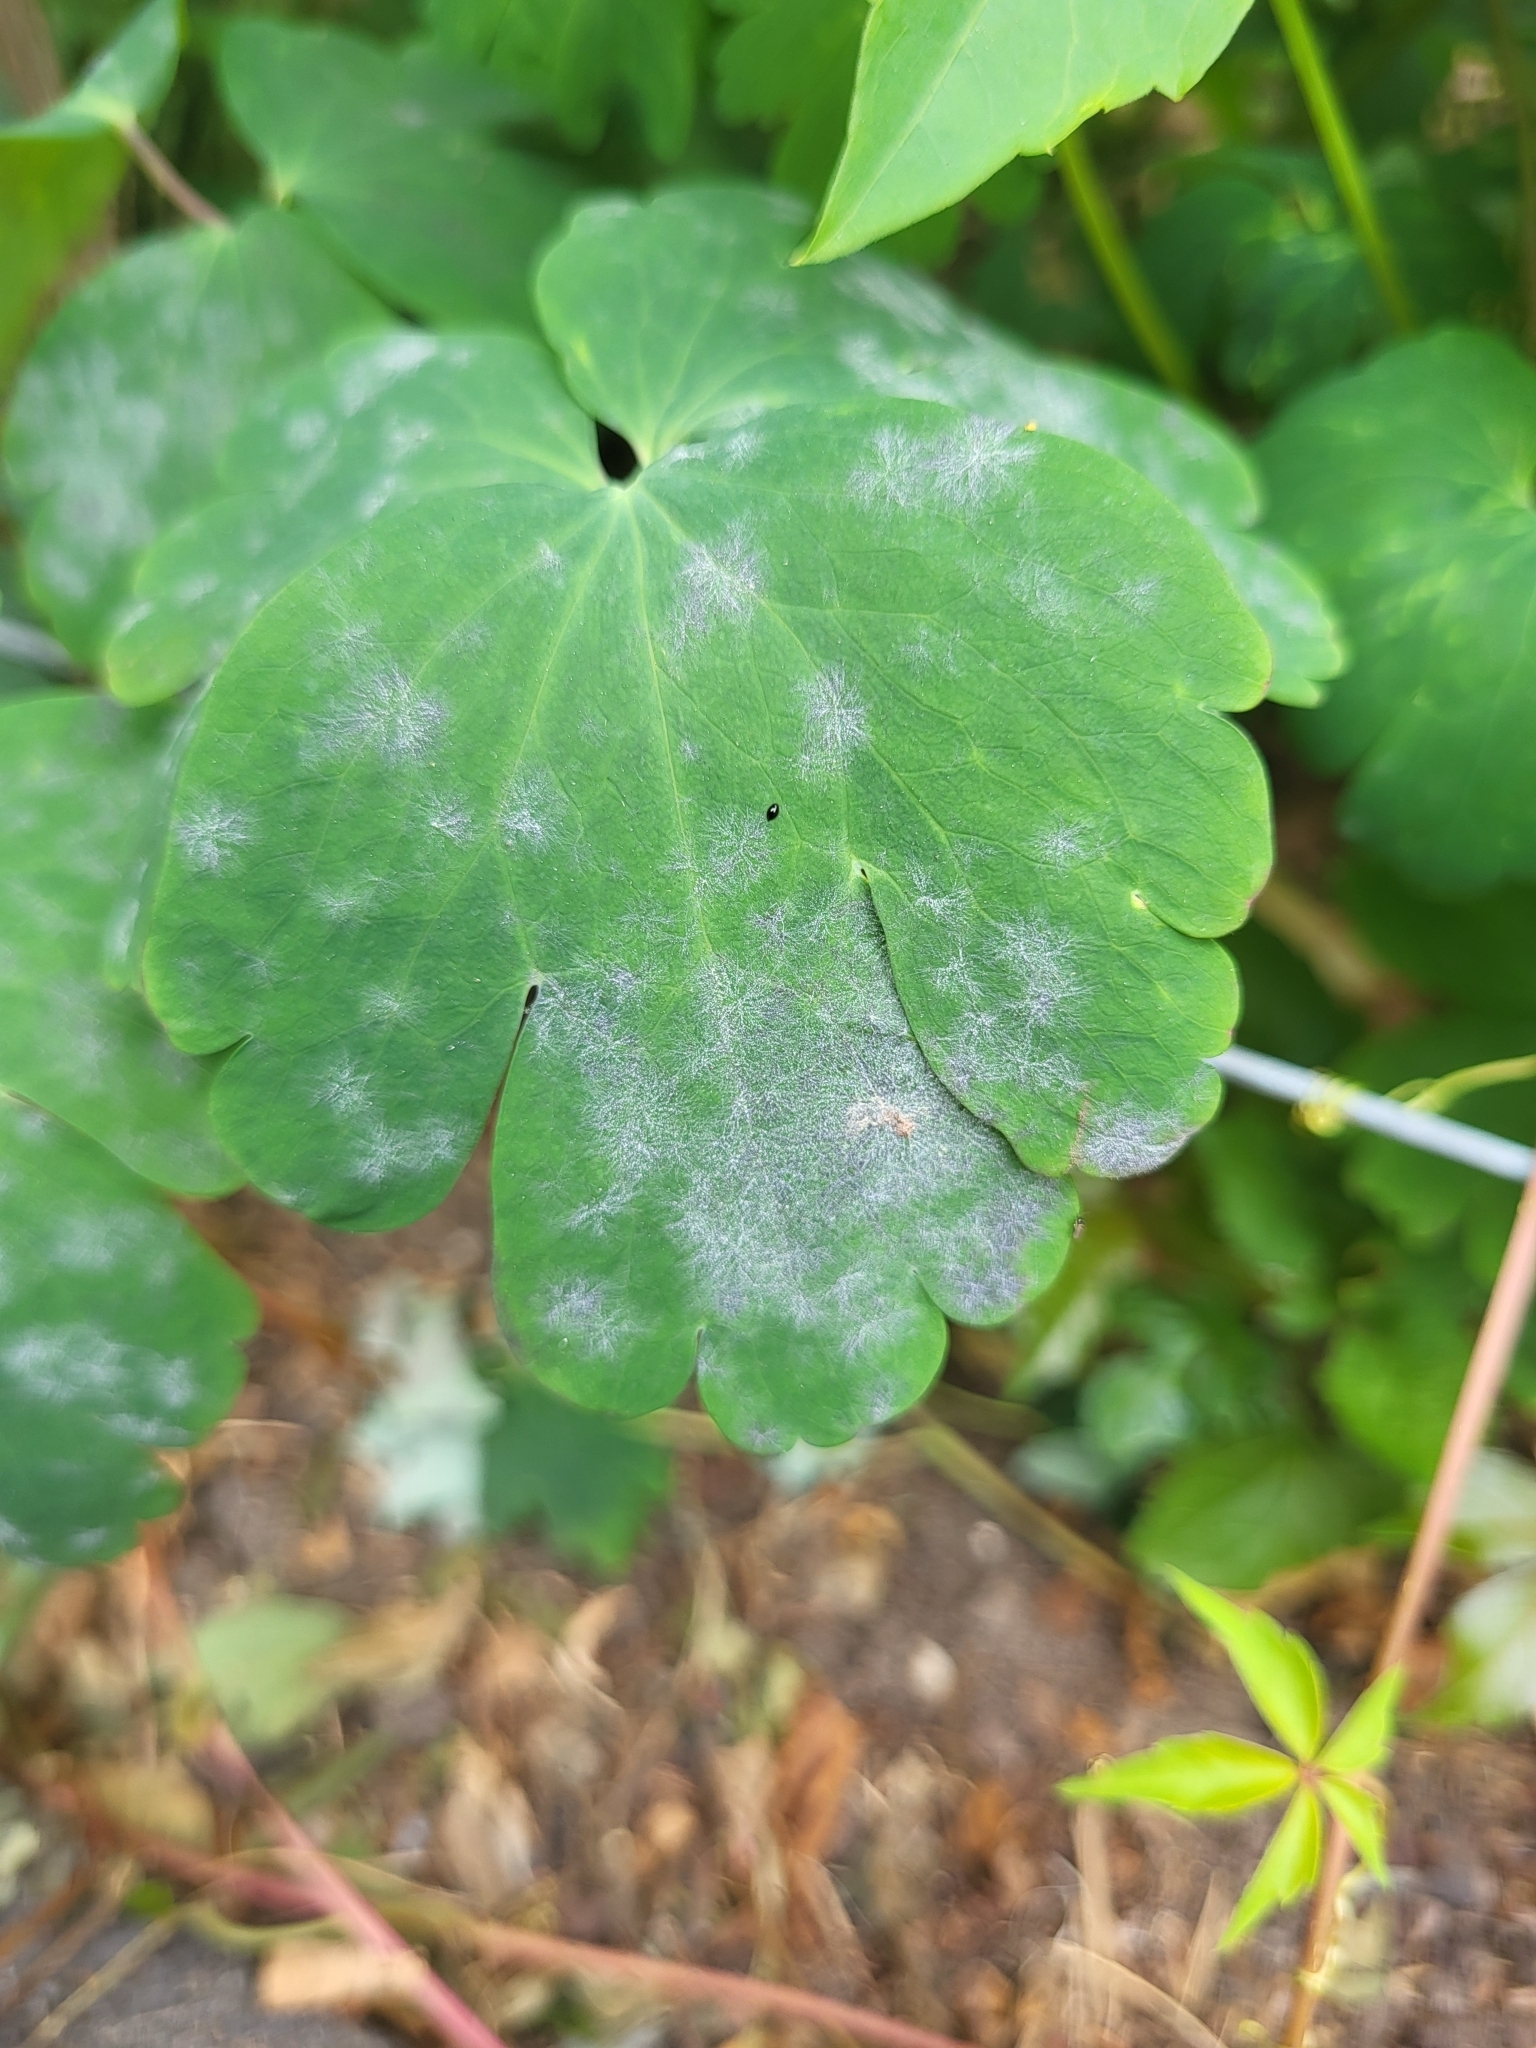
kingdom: Fungi
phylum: Ascomycota
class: Leotiomycetes
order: Helotiales
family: Erysiphaceae
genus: Erysiphe
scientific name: Erysiphe aquilegiae
